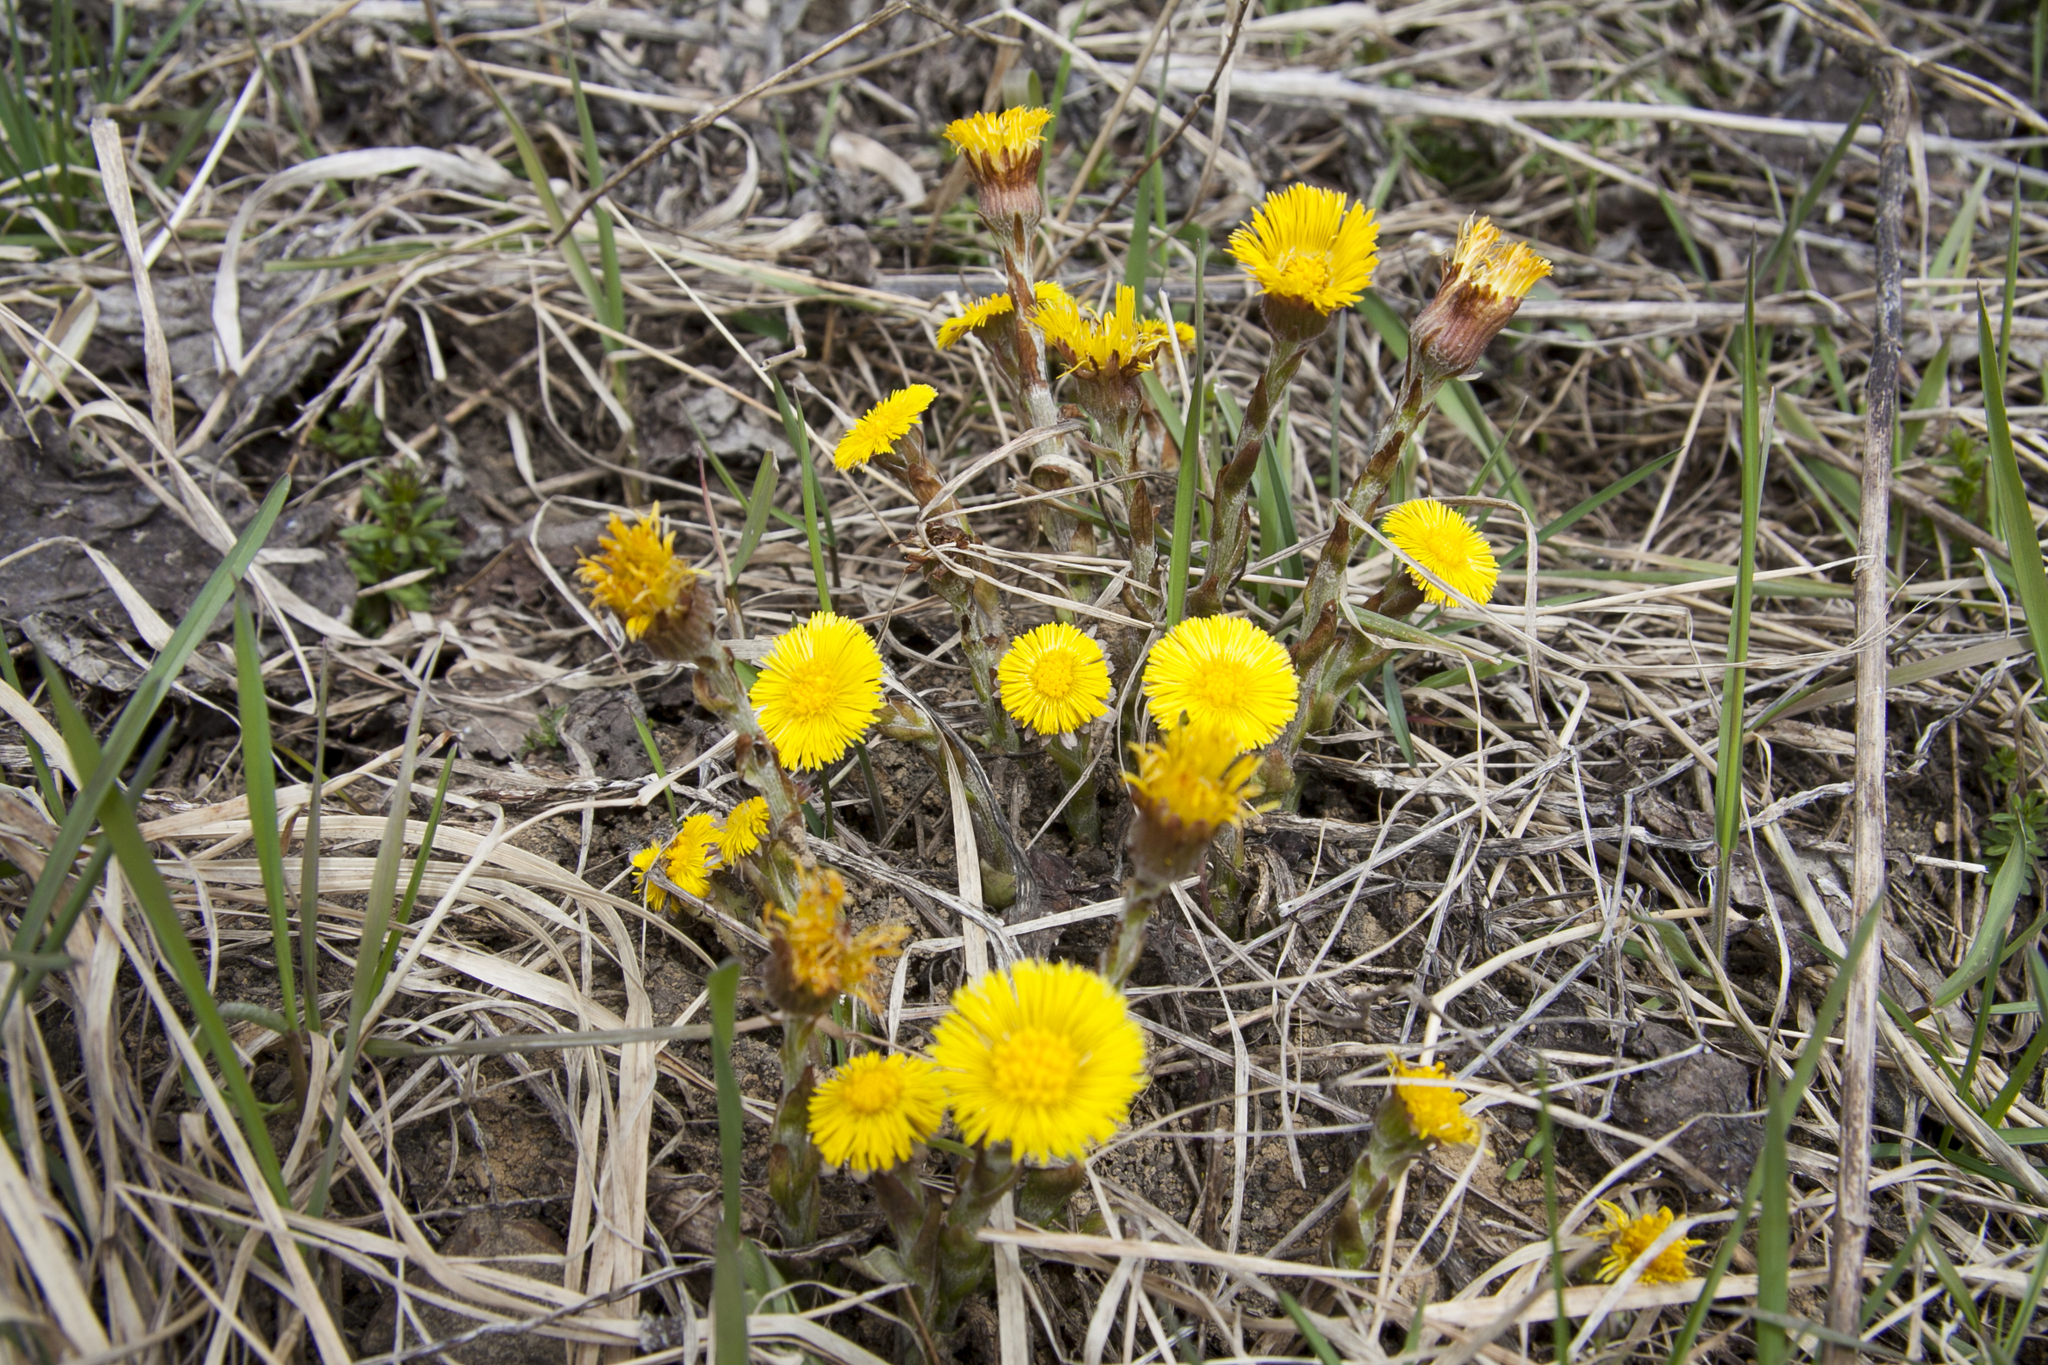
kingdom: Plantae
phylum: Tracheophyta
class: Magnoliopsida
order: Asterales
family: Asteraceae
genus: Tussilago
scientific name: Tussilago farfara
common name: Coltsfoot
